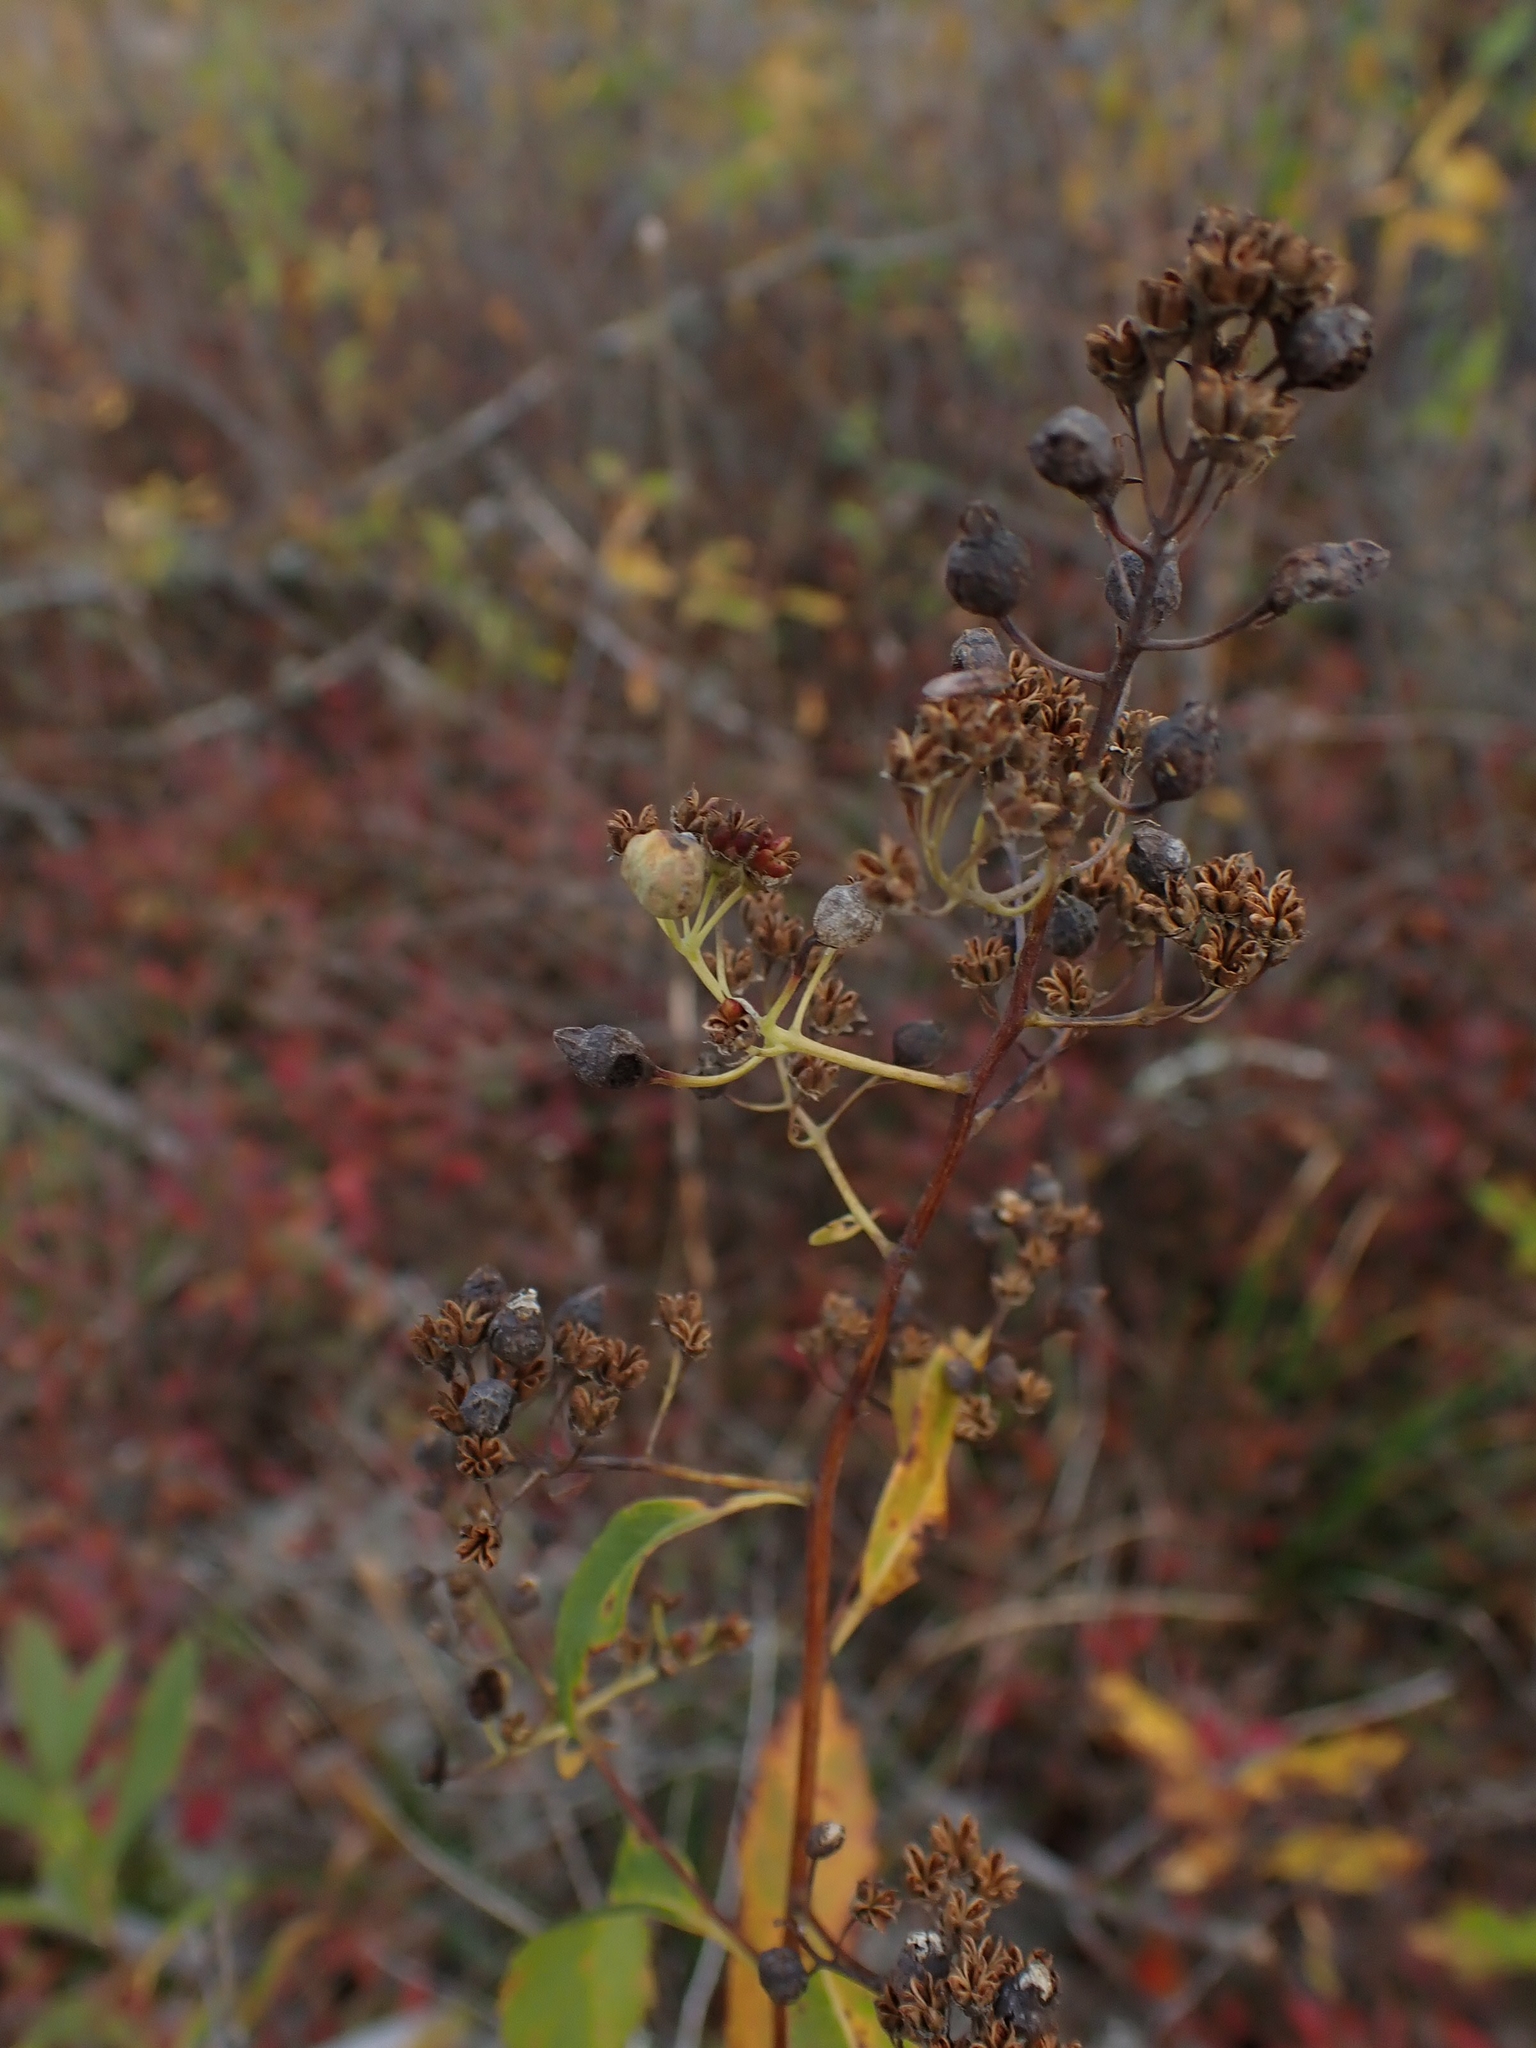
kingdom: Plantae
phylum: Tracheophyta
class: Magnoliopsida
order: Rosales
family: Rosaceae
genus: Spiraea
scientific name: Spiraea alba
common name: Pale bridewort
